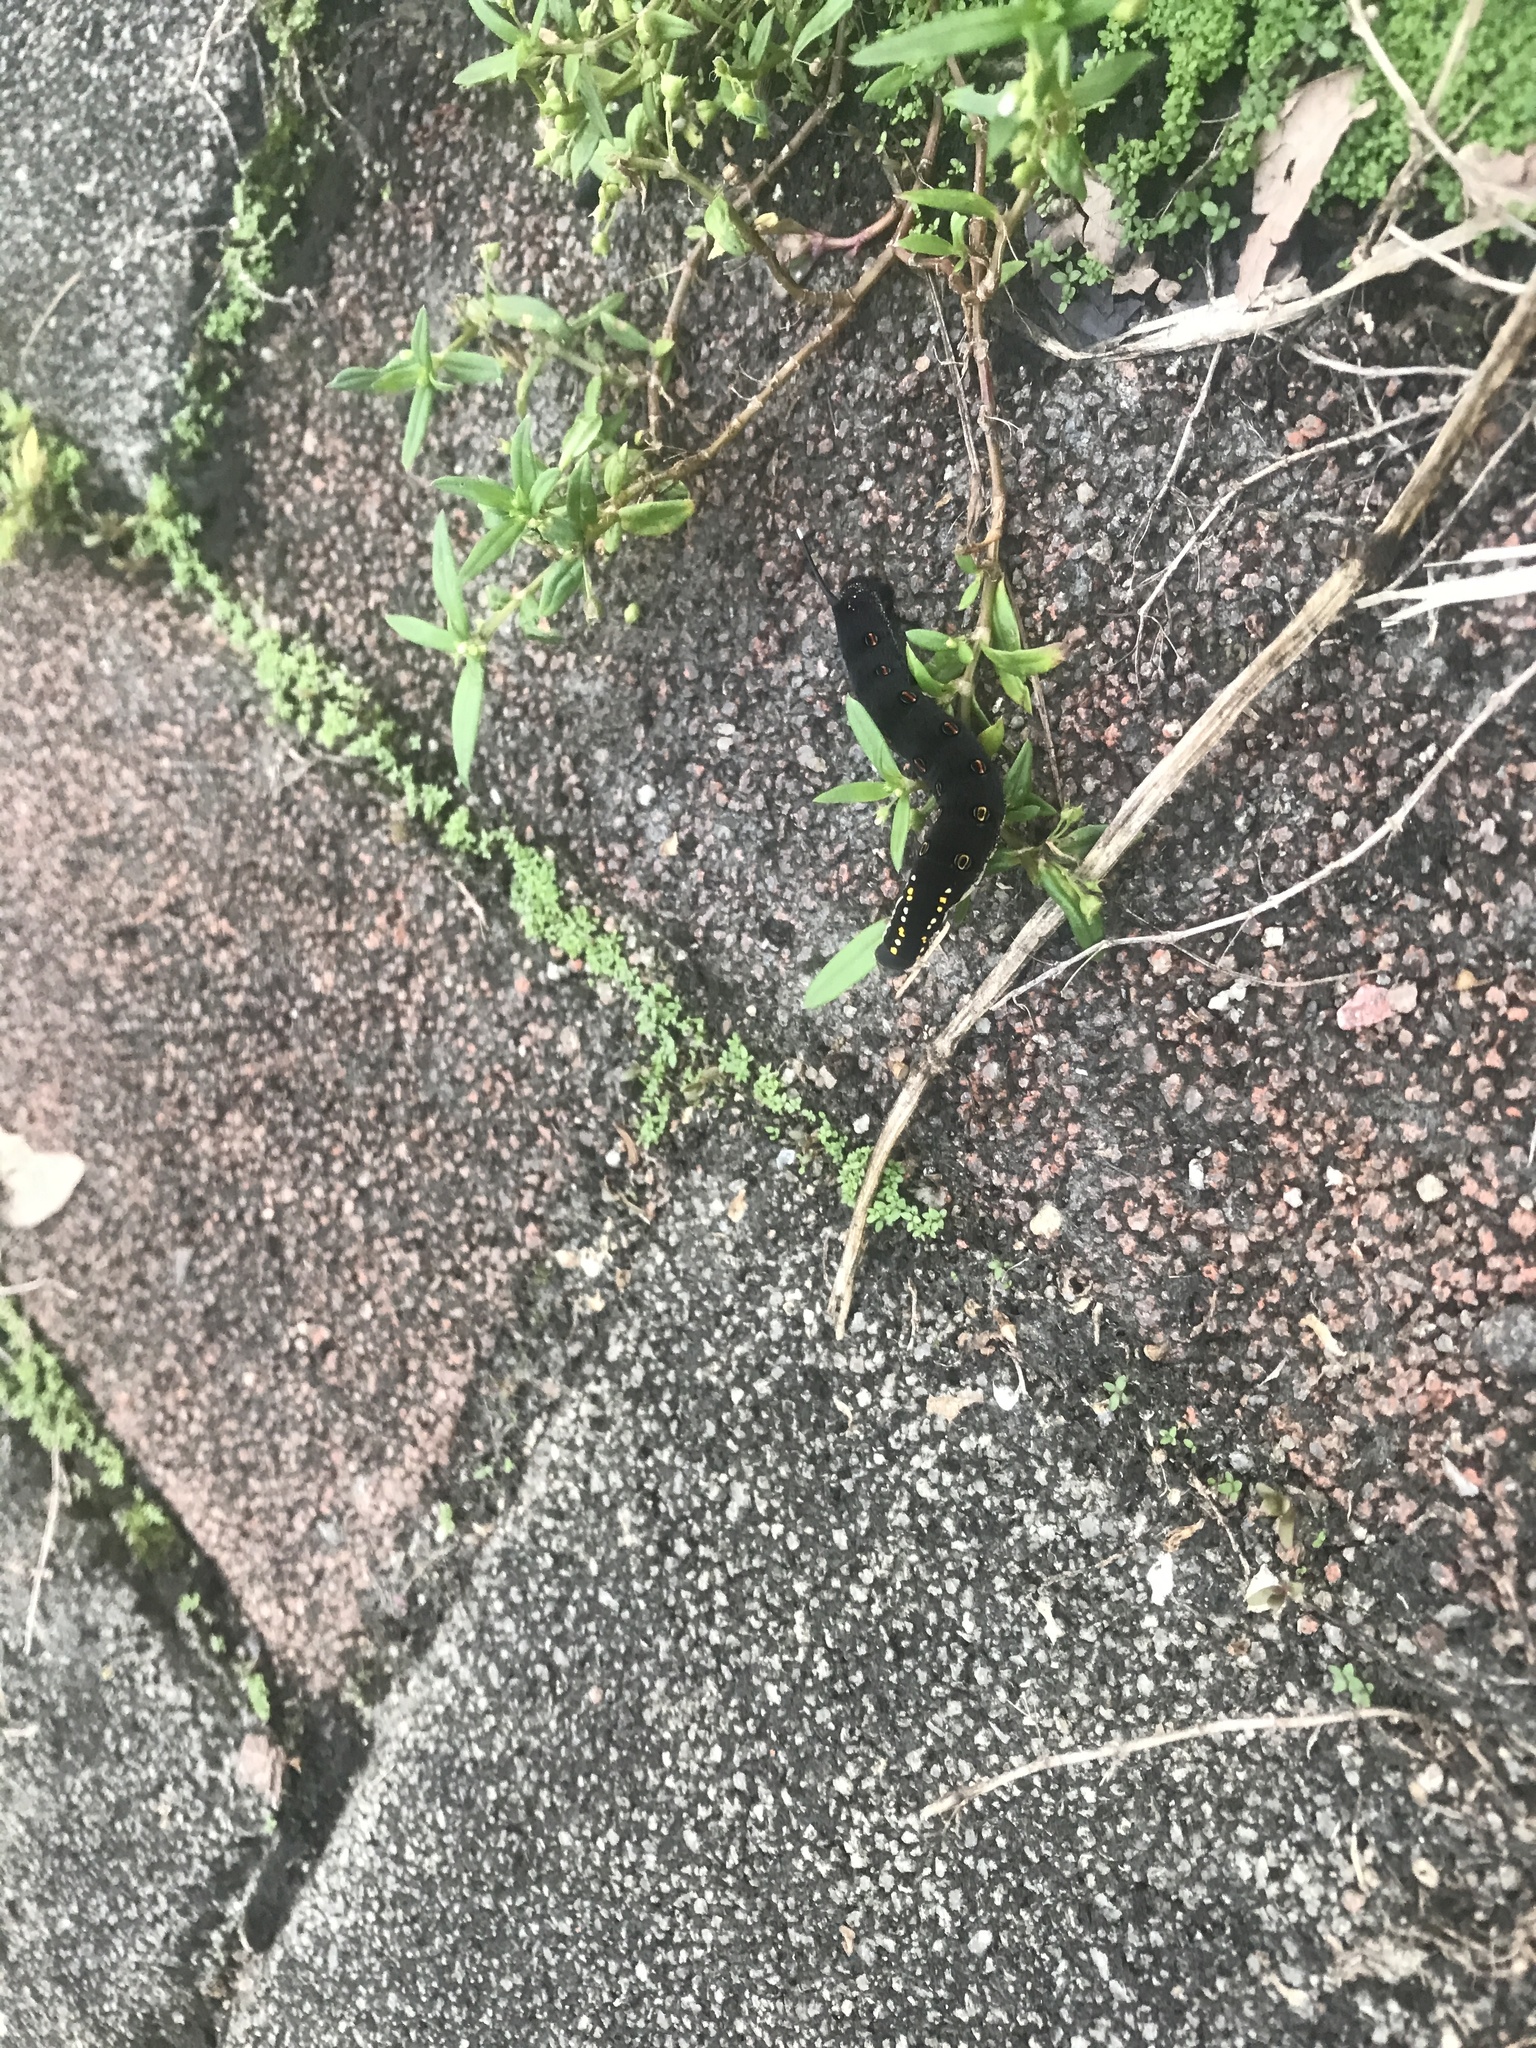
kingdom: Animalia
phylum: Arthropoda
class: Insecta
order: Lepidoptera
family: Sphingidae
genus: Theretra
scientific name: Theretra oldenlandiae
